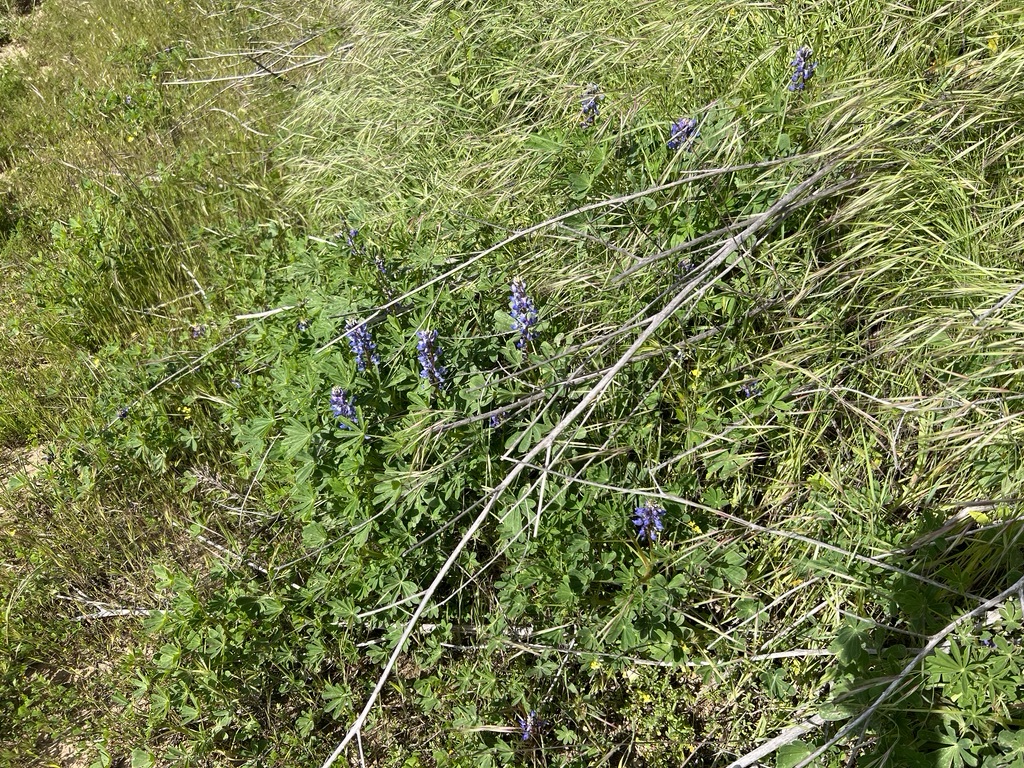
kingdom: Plantae
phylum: Tracheophyta
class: Magnoliopsida
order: Fabales
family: Fabaceae
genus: Lupinus
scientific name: Lupinus succulentus
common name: Arroyo lupine
